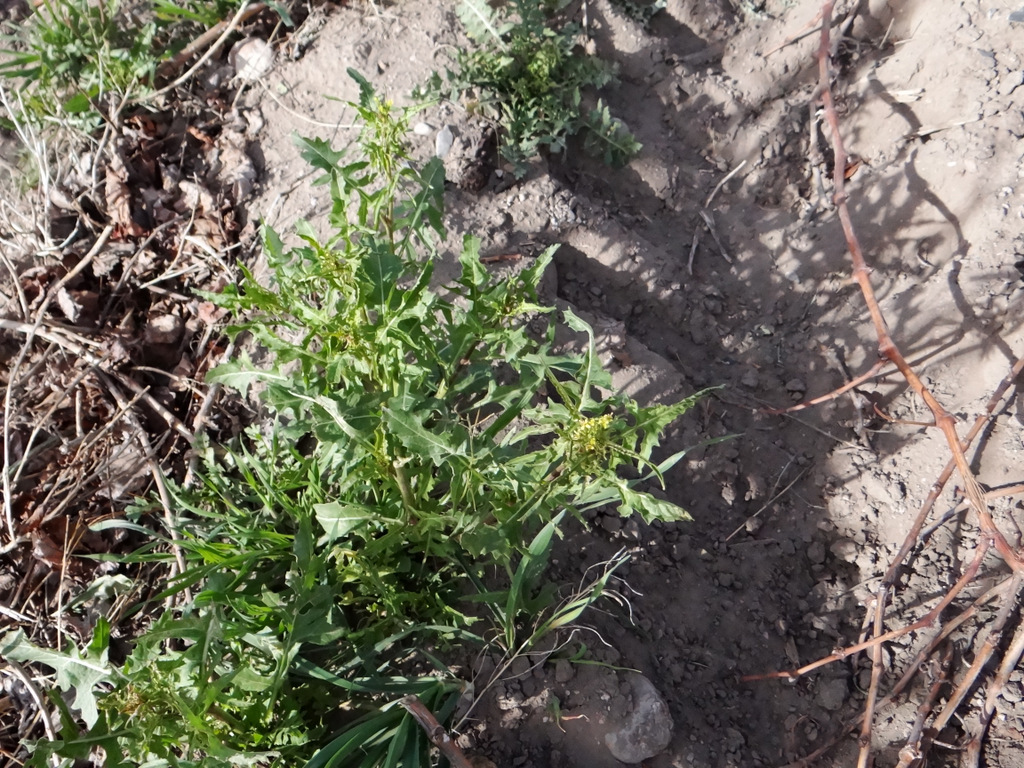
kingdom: Plantae
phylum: Tracheophyta
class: Magnoliopsida
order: Brassicales
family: Brassicaceae
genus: Sisymbrium
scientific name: Sisymbrium irio
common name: London rocket
